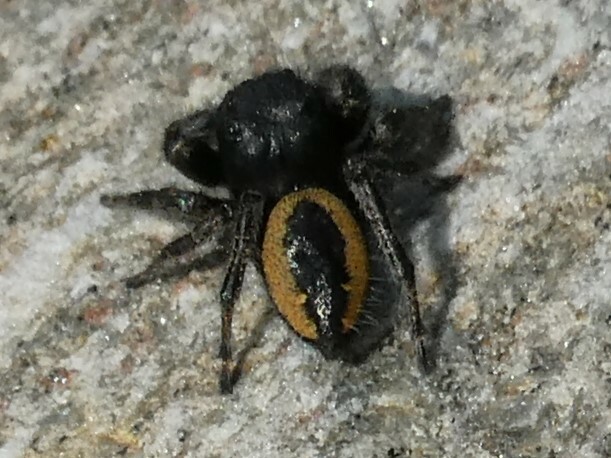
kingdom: Animalia
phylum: Arthropoda
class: Arachnida
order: Araneae
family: Salticidae
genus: Phidippus
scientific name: Phidippus purpuratus
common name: Marbled purple jumping spider
